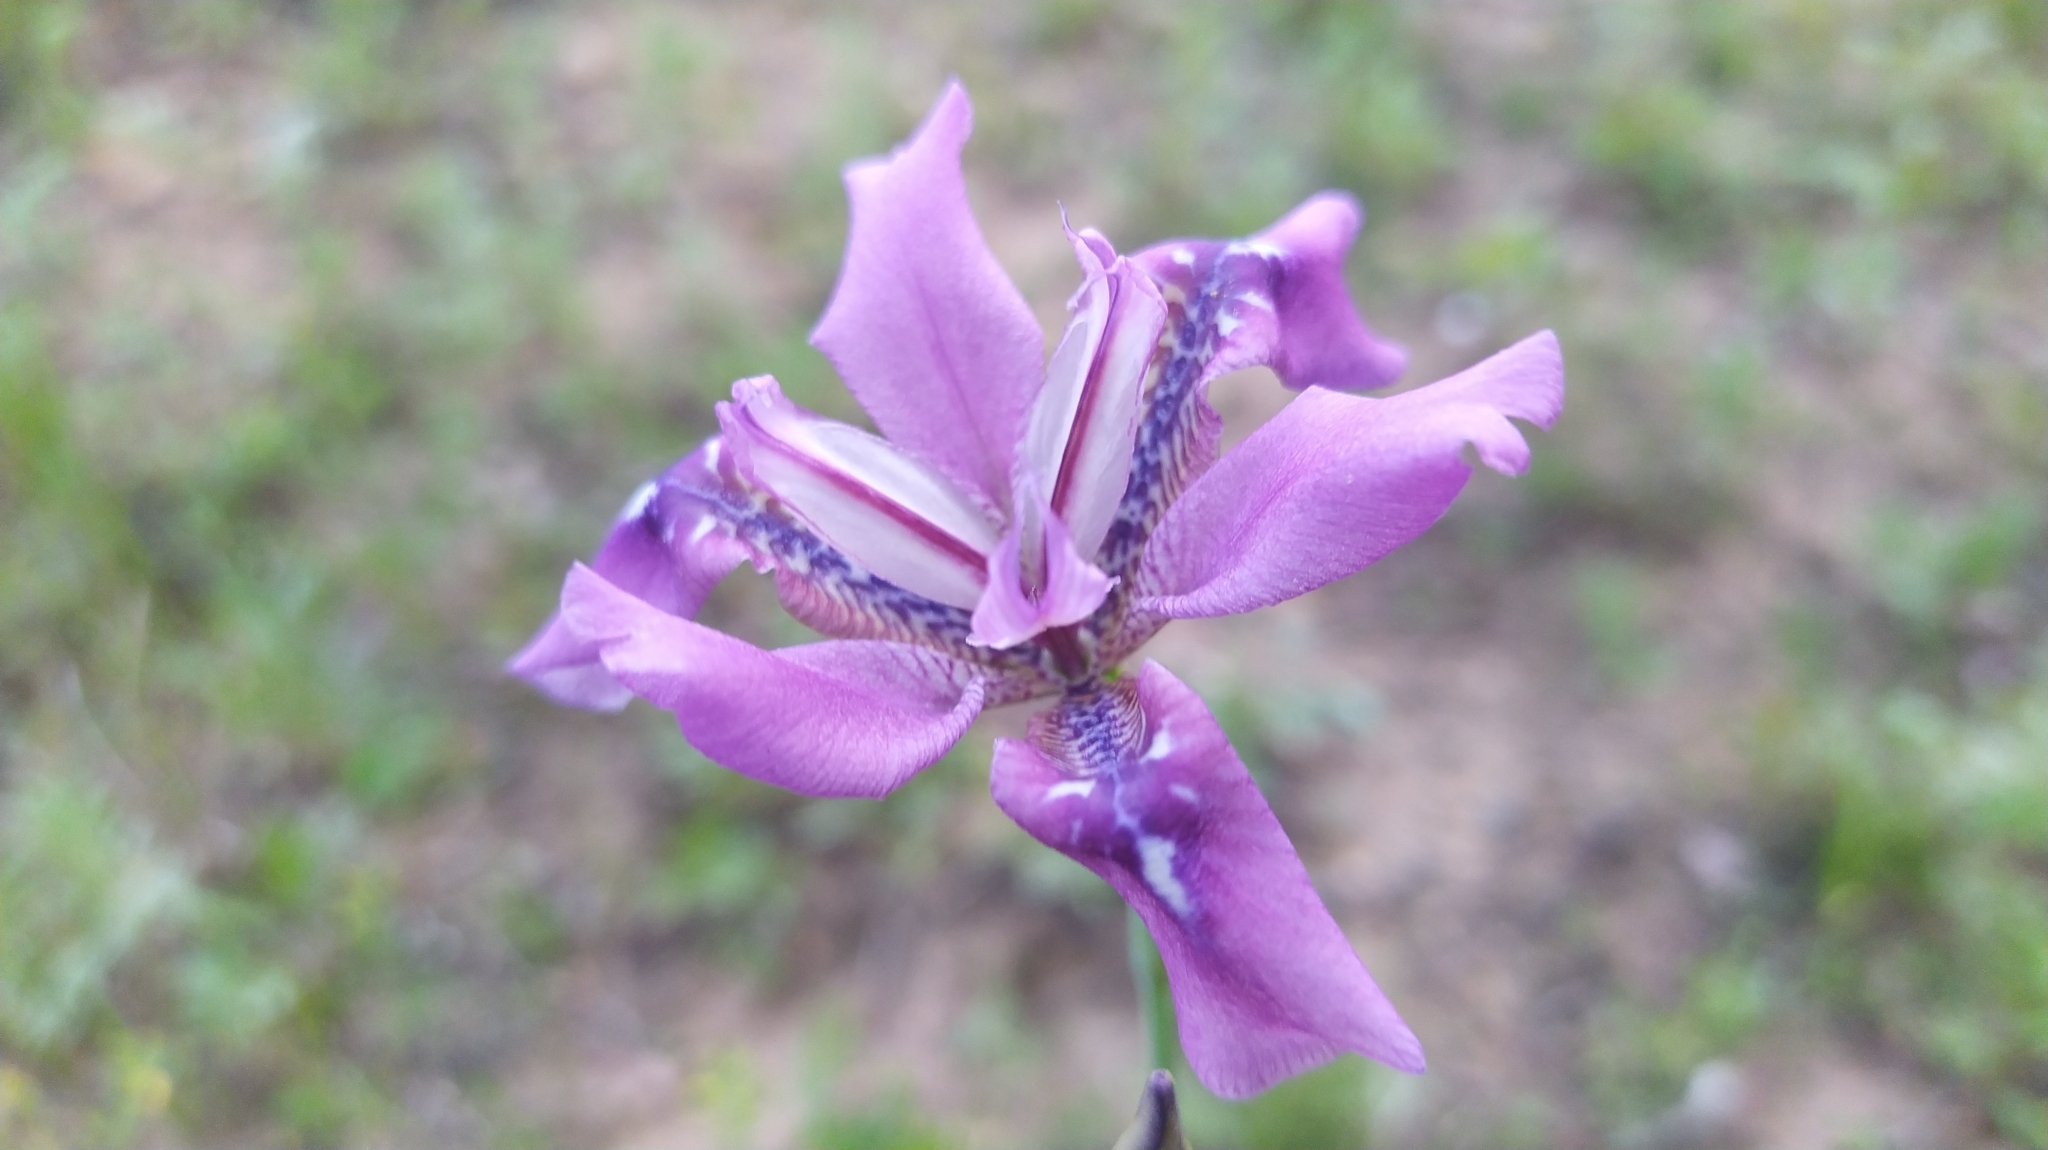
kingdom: Plantae
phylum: Tracheophyta
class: Liliopsida
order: Asparagales
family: Iridaceae
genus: Iris
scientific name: Iris dichotoma
